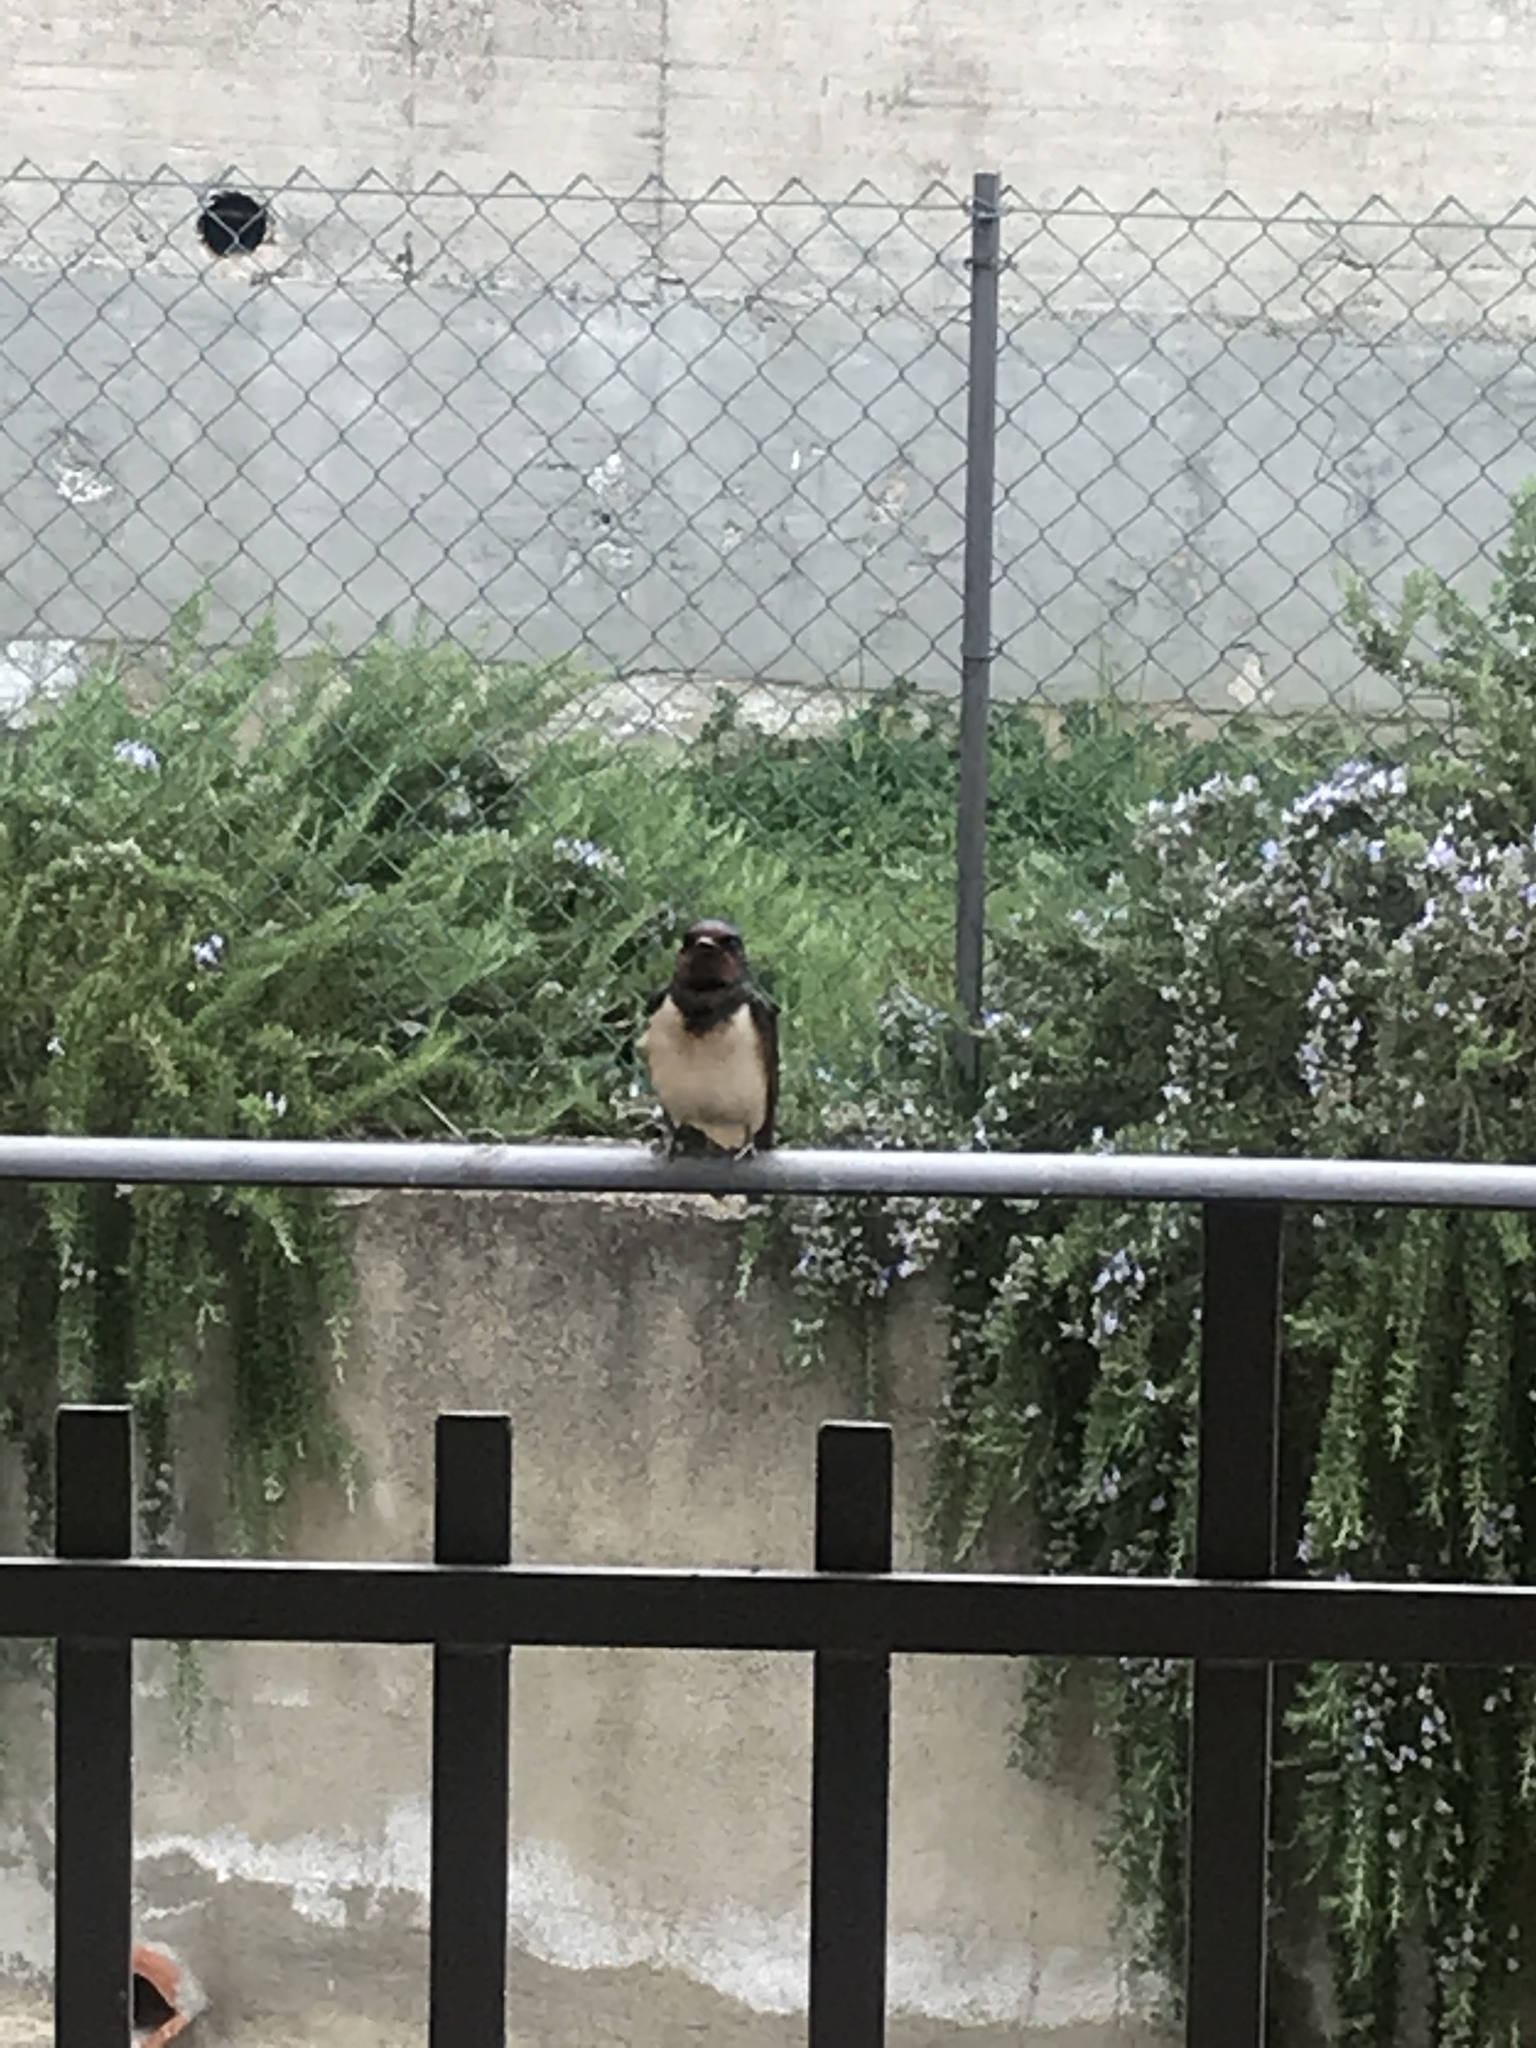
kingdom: Animalia
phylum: Chordata
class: Aves
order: Passeriformes
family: Hirundinidae
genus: Hirundo
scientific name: Hirundo rustica
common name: Barn swallow
